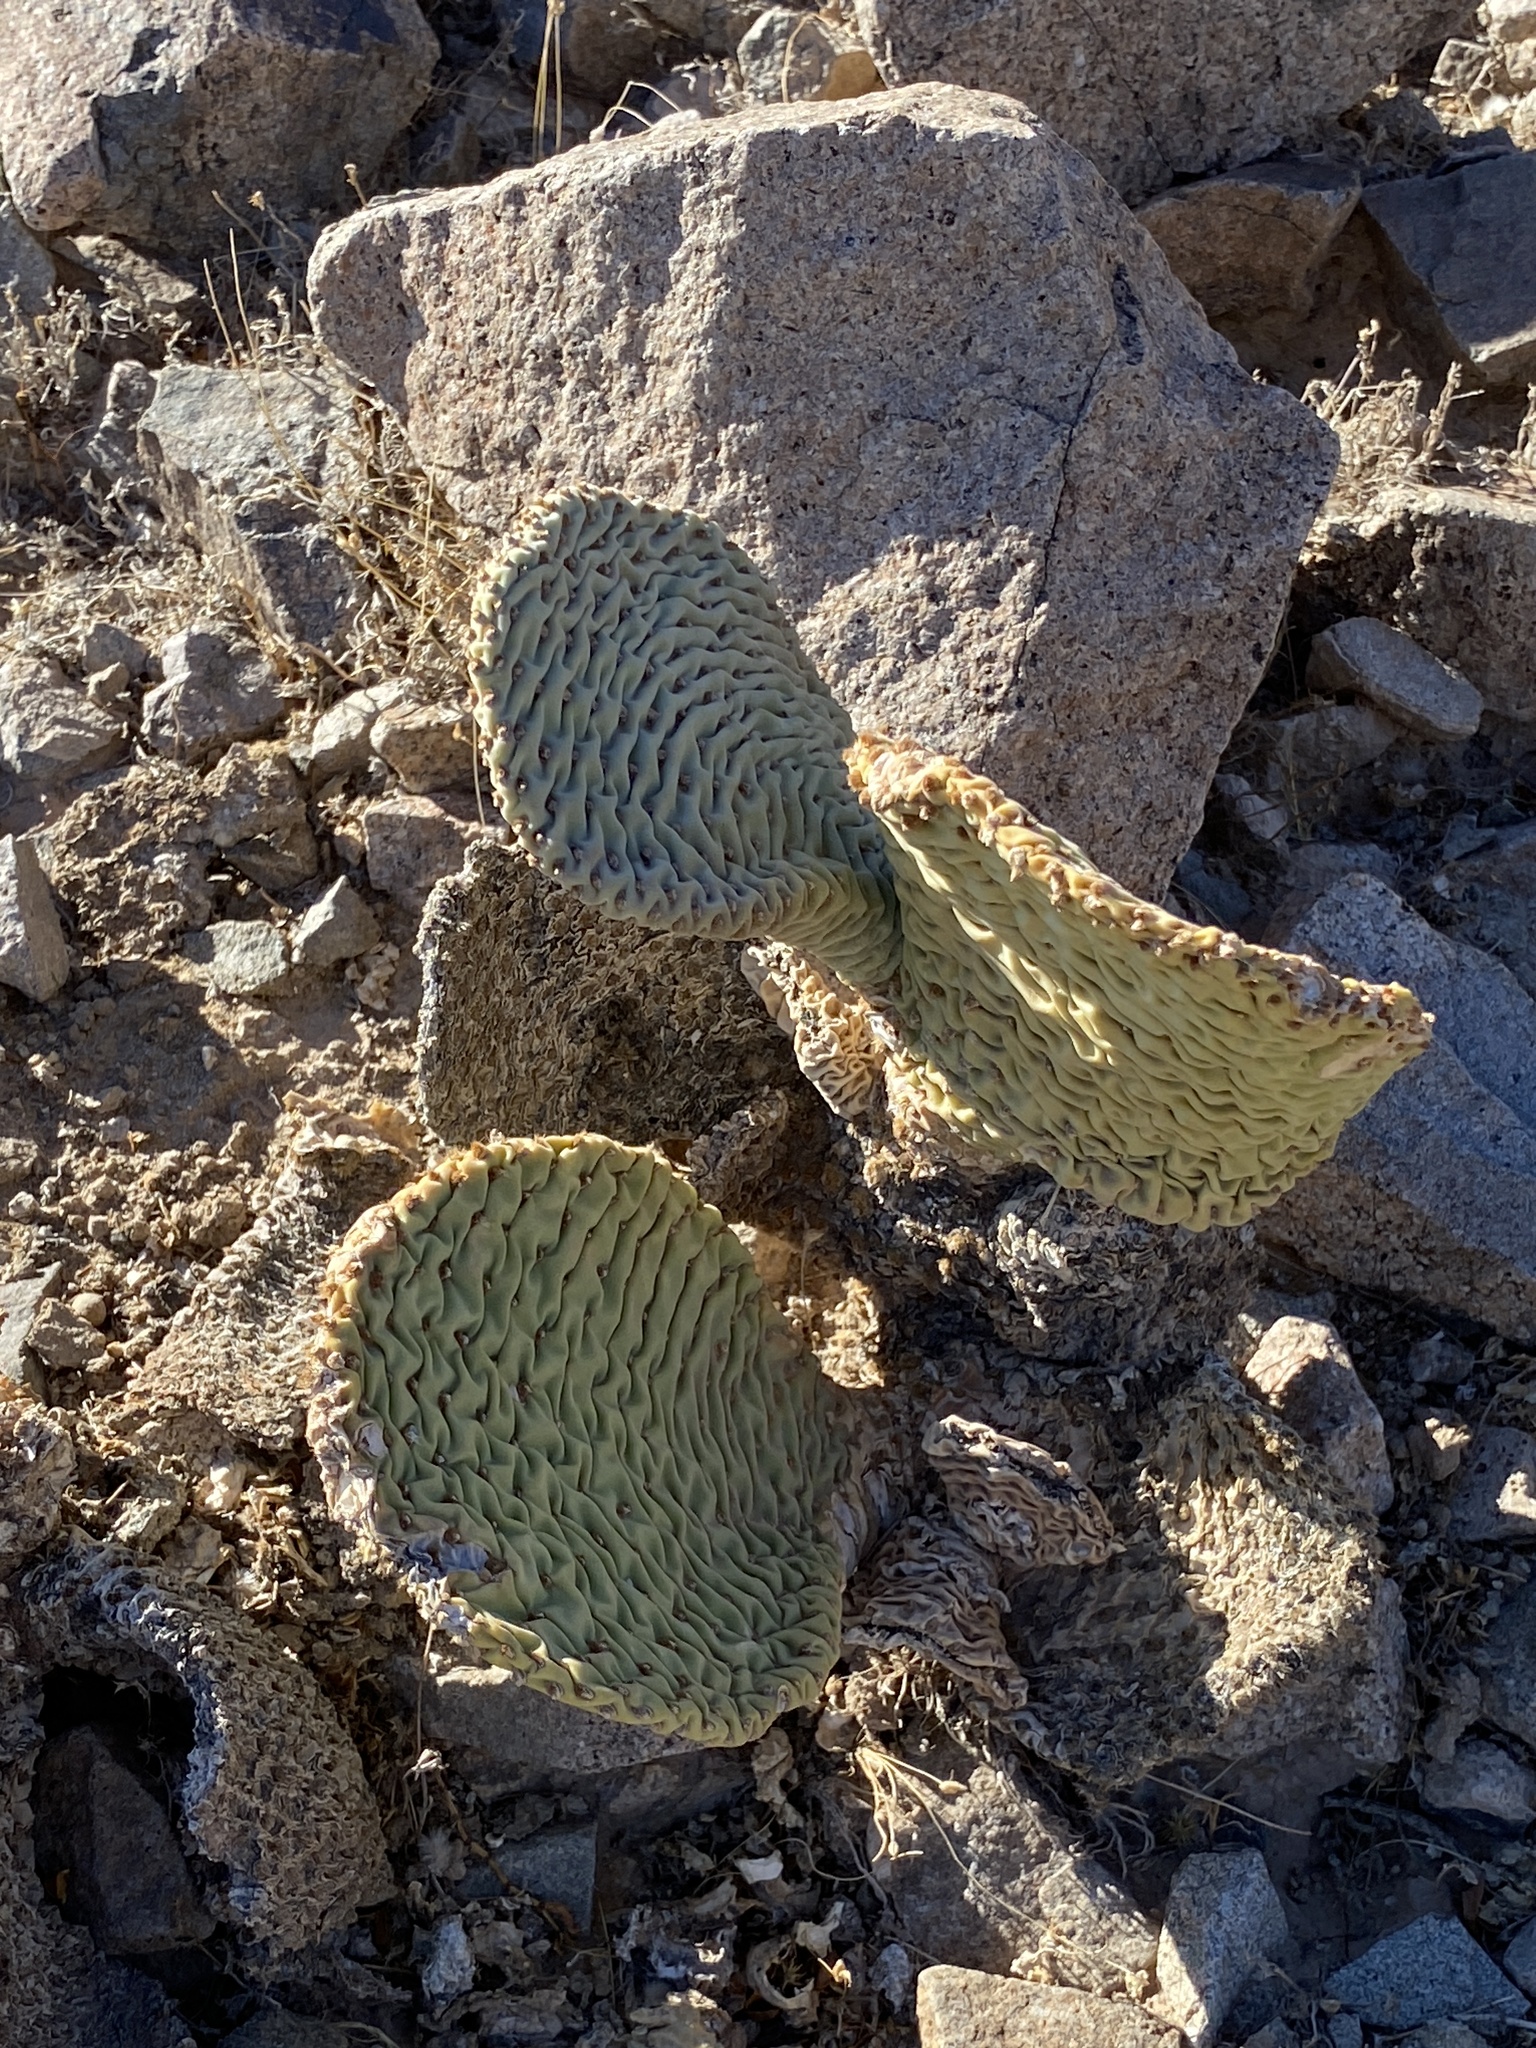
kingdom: Plantae
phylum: Tracheophyta
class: Magnoliopsida
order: Caryophyllales
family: Cactaceae
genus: Opuntia
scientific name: Opuntia basilaris
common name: Beavertail prickly-pear
